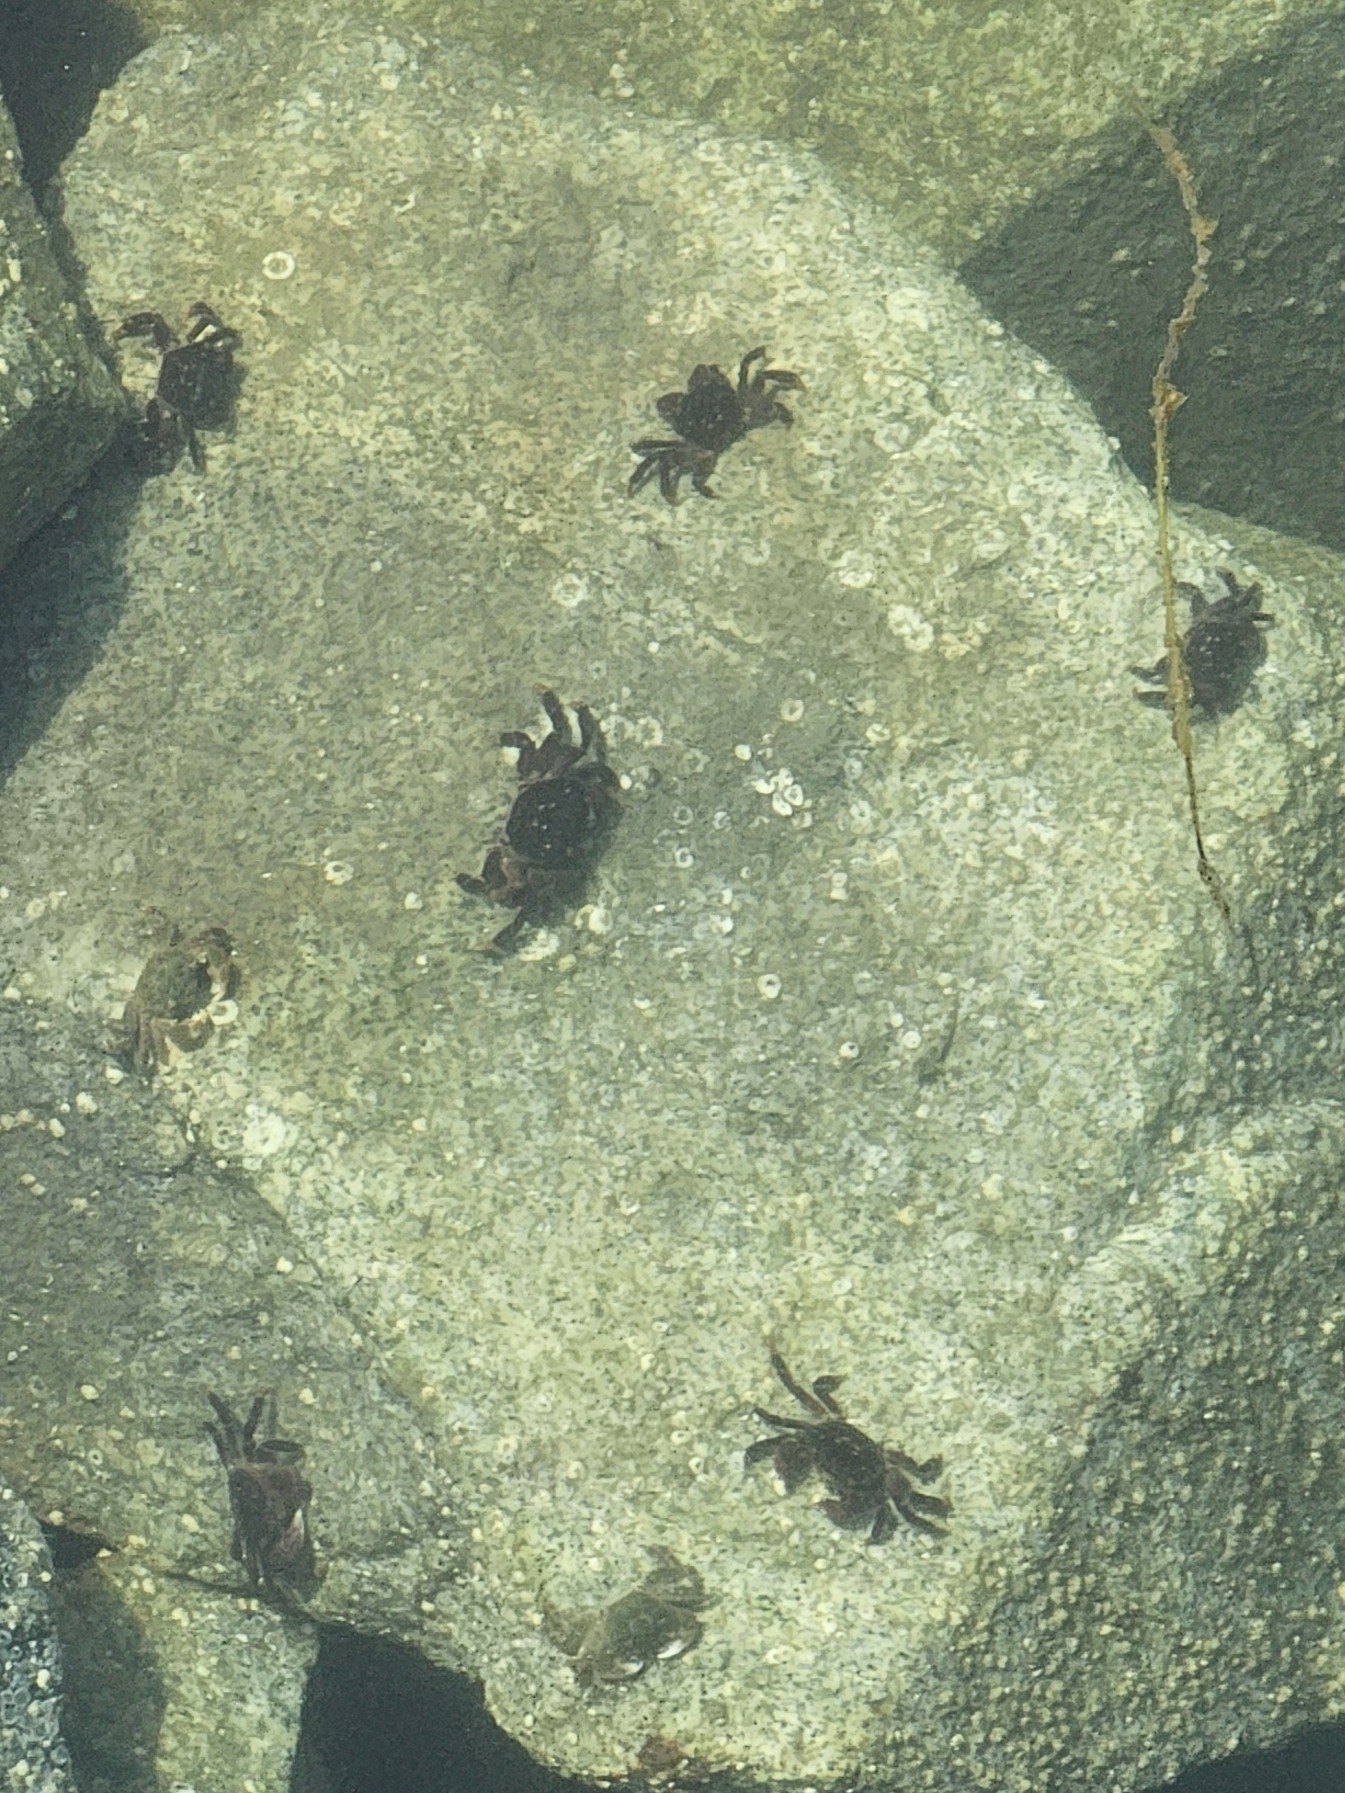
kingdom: Animalia
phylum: Arthropoda
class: Malacostraca
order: Decapoda
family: Varunidae
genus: Hemigrapsus
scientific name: Hemigrapsus nudus
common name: Purple shore crab
